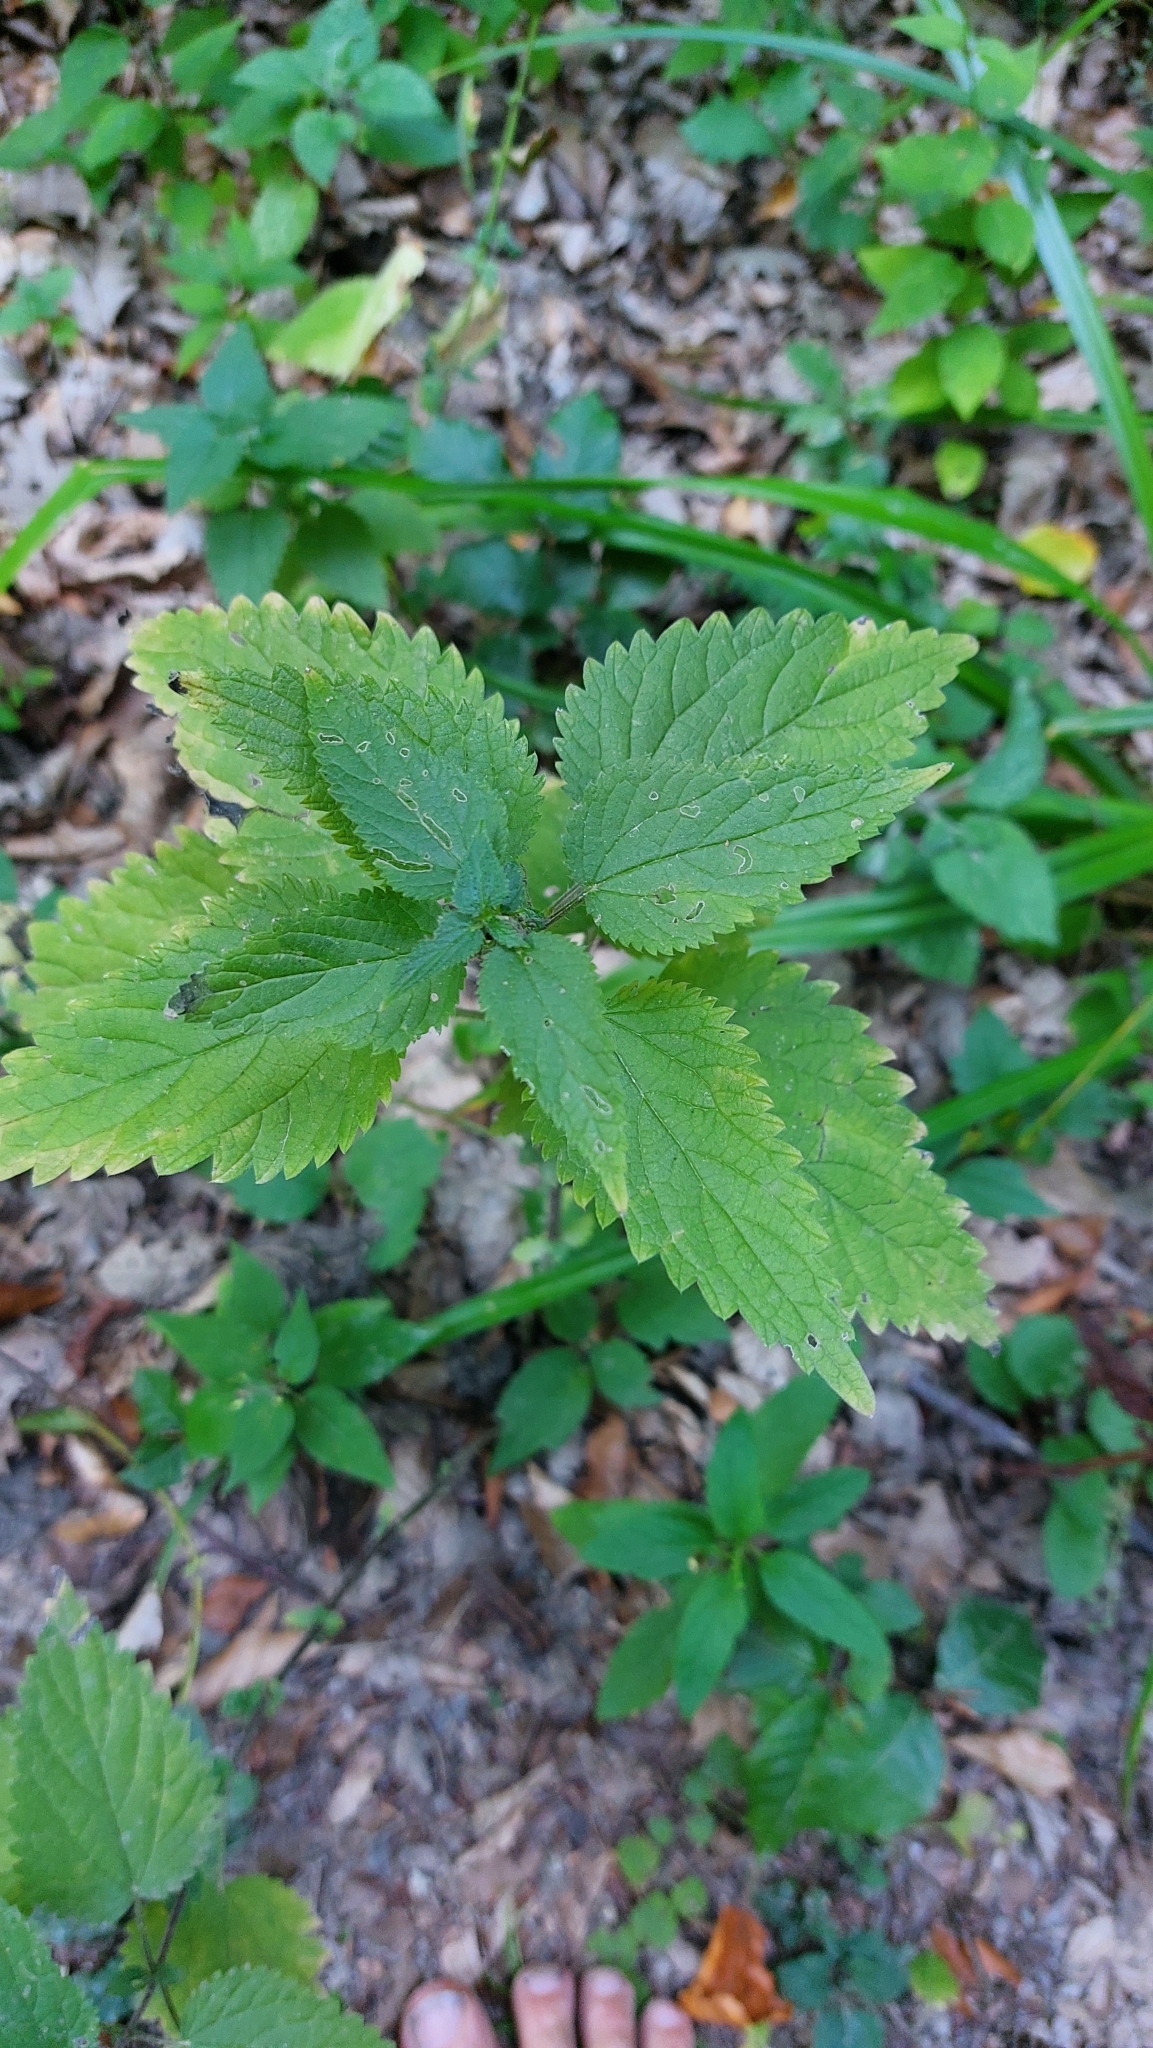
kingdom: Plantae
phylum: Tracheophyta
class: Magnoliopsida
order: Rosales
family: Urticaceae
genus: Urtica
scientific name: Urtica dioica
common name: Common nettle
